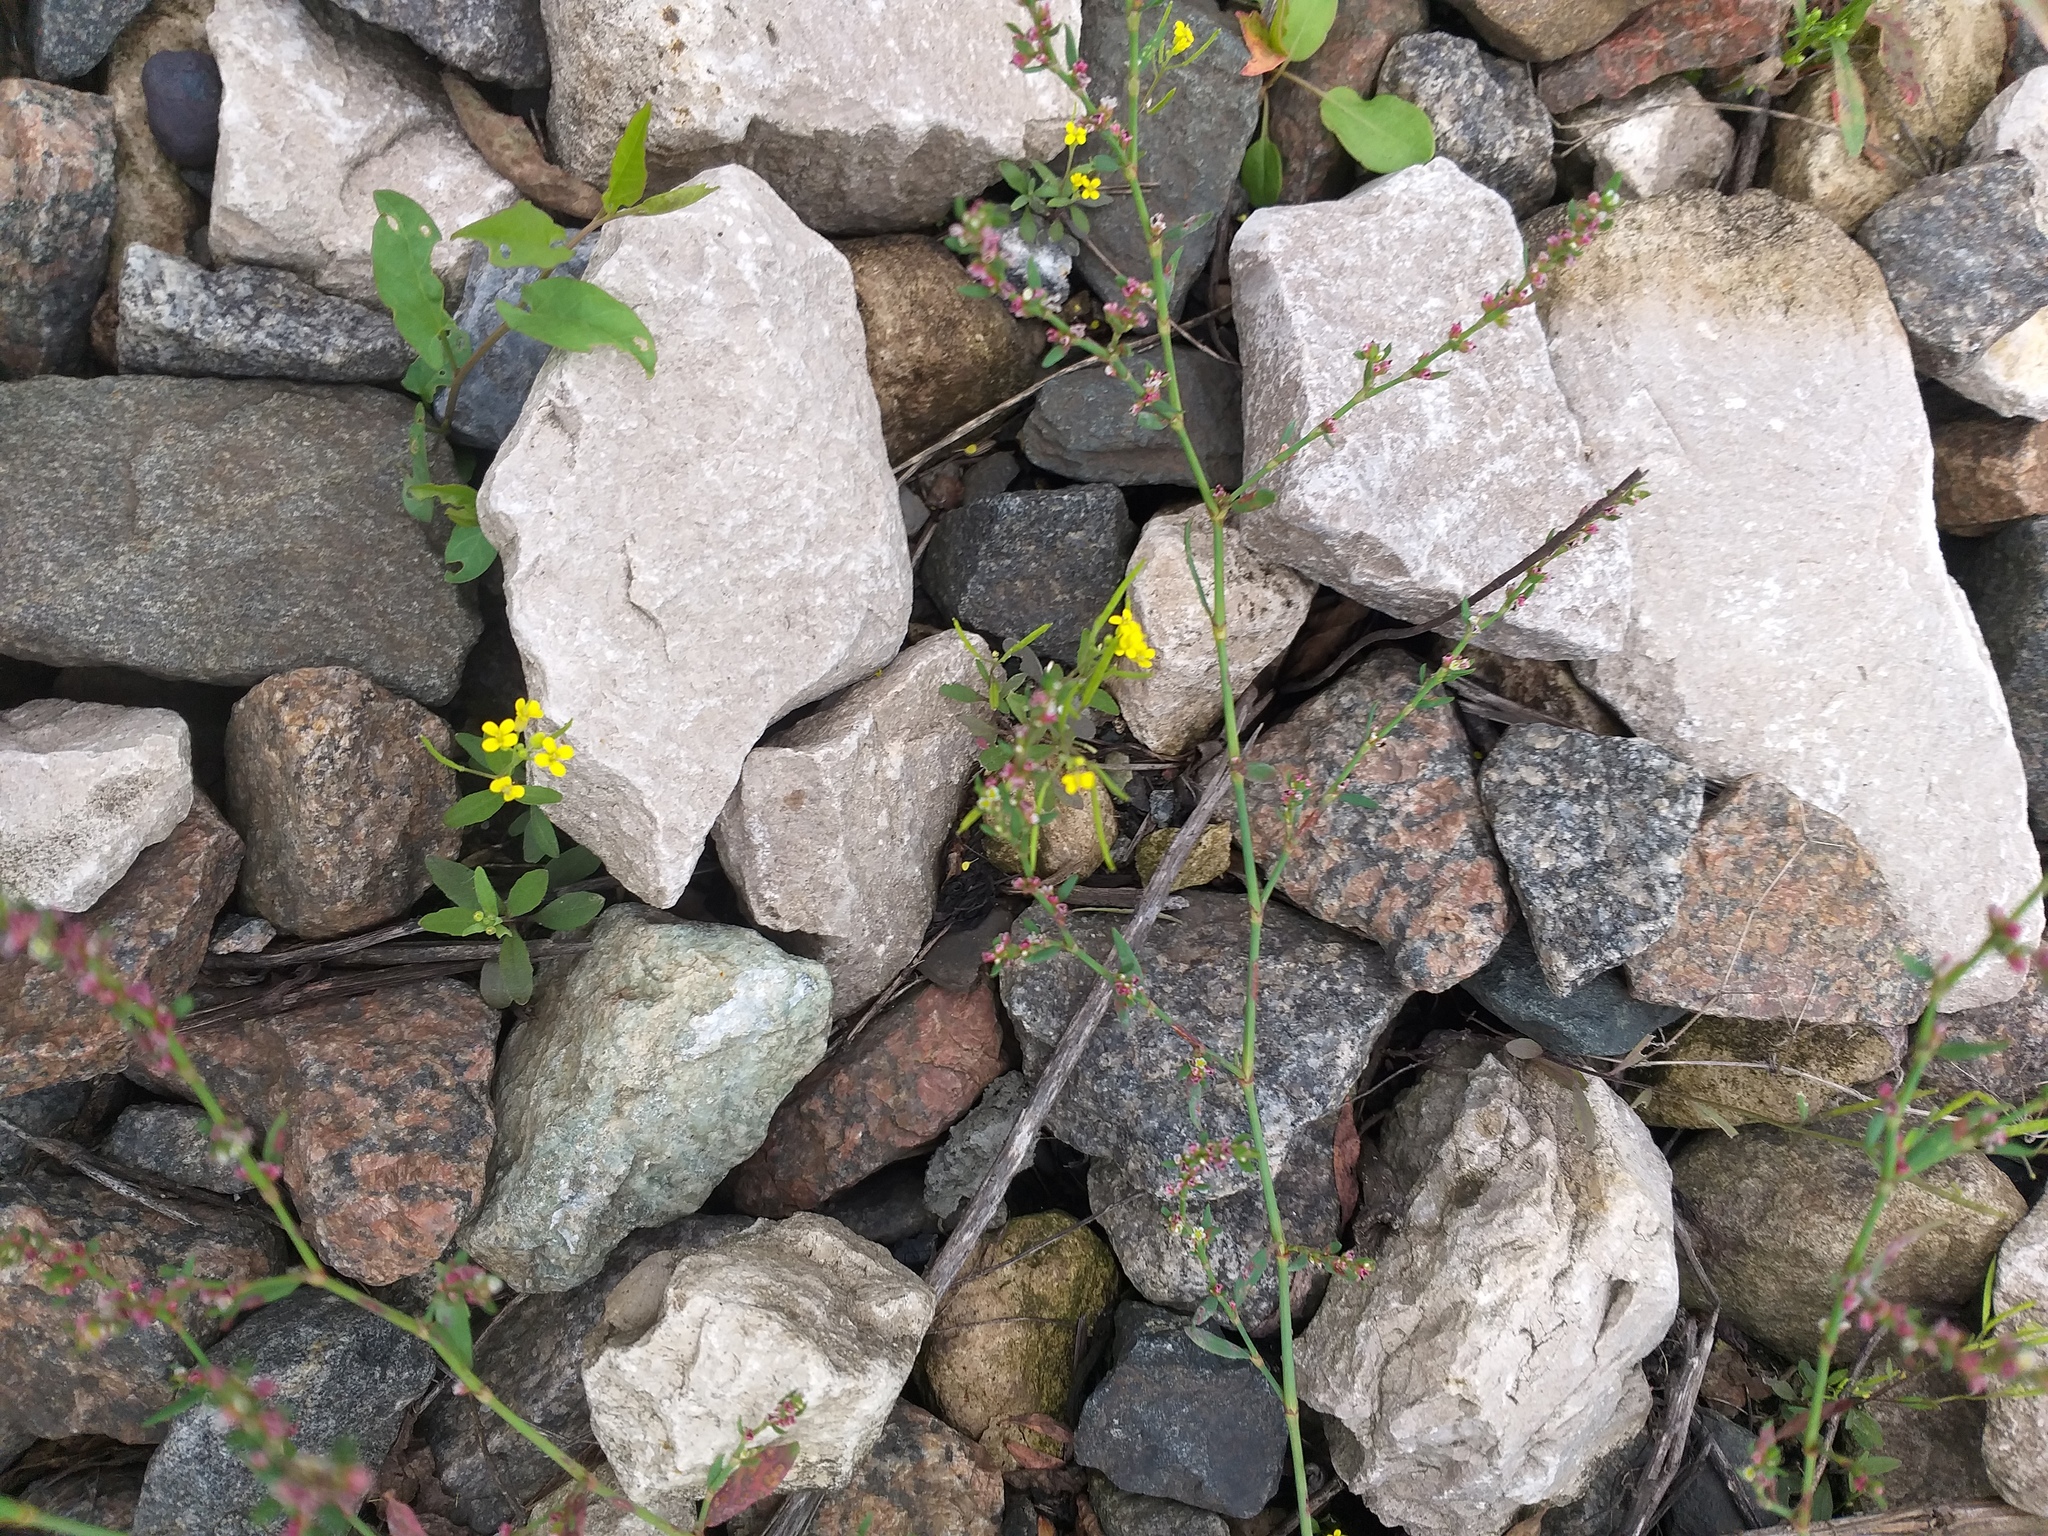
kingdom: Plantae
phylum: Tracheophyta
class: Magnoliopsida
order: Brassicales
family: Brassicaceae
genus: Erysimum
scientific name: Erysimum cheiranthoides
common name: Treacle mustard
